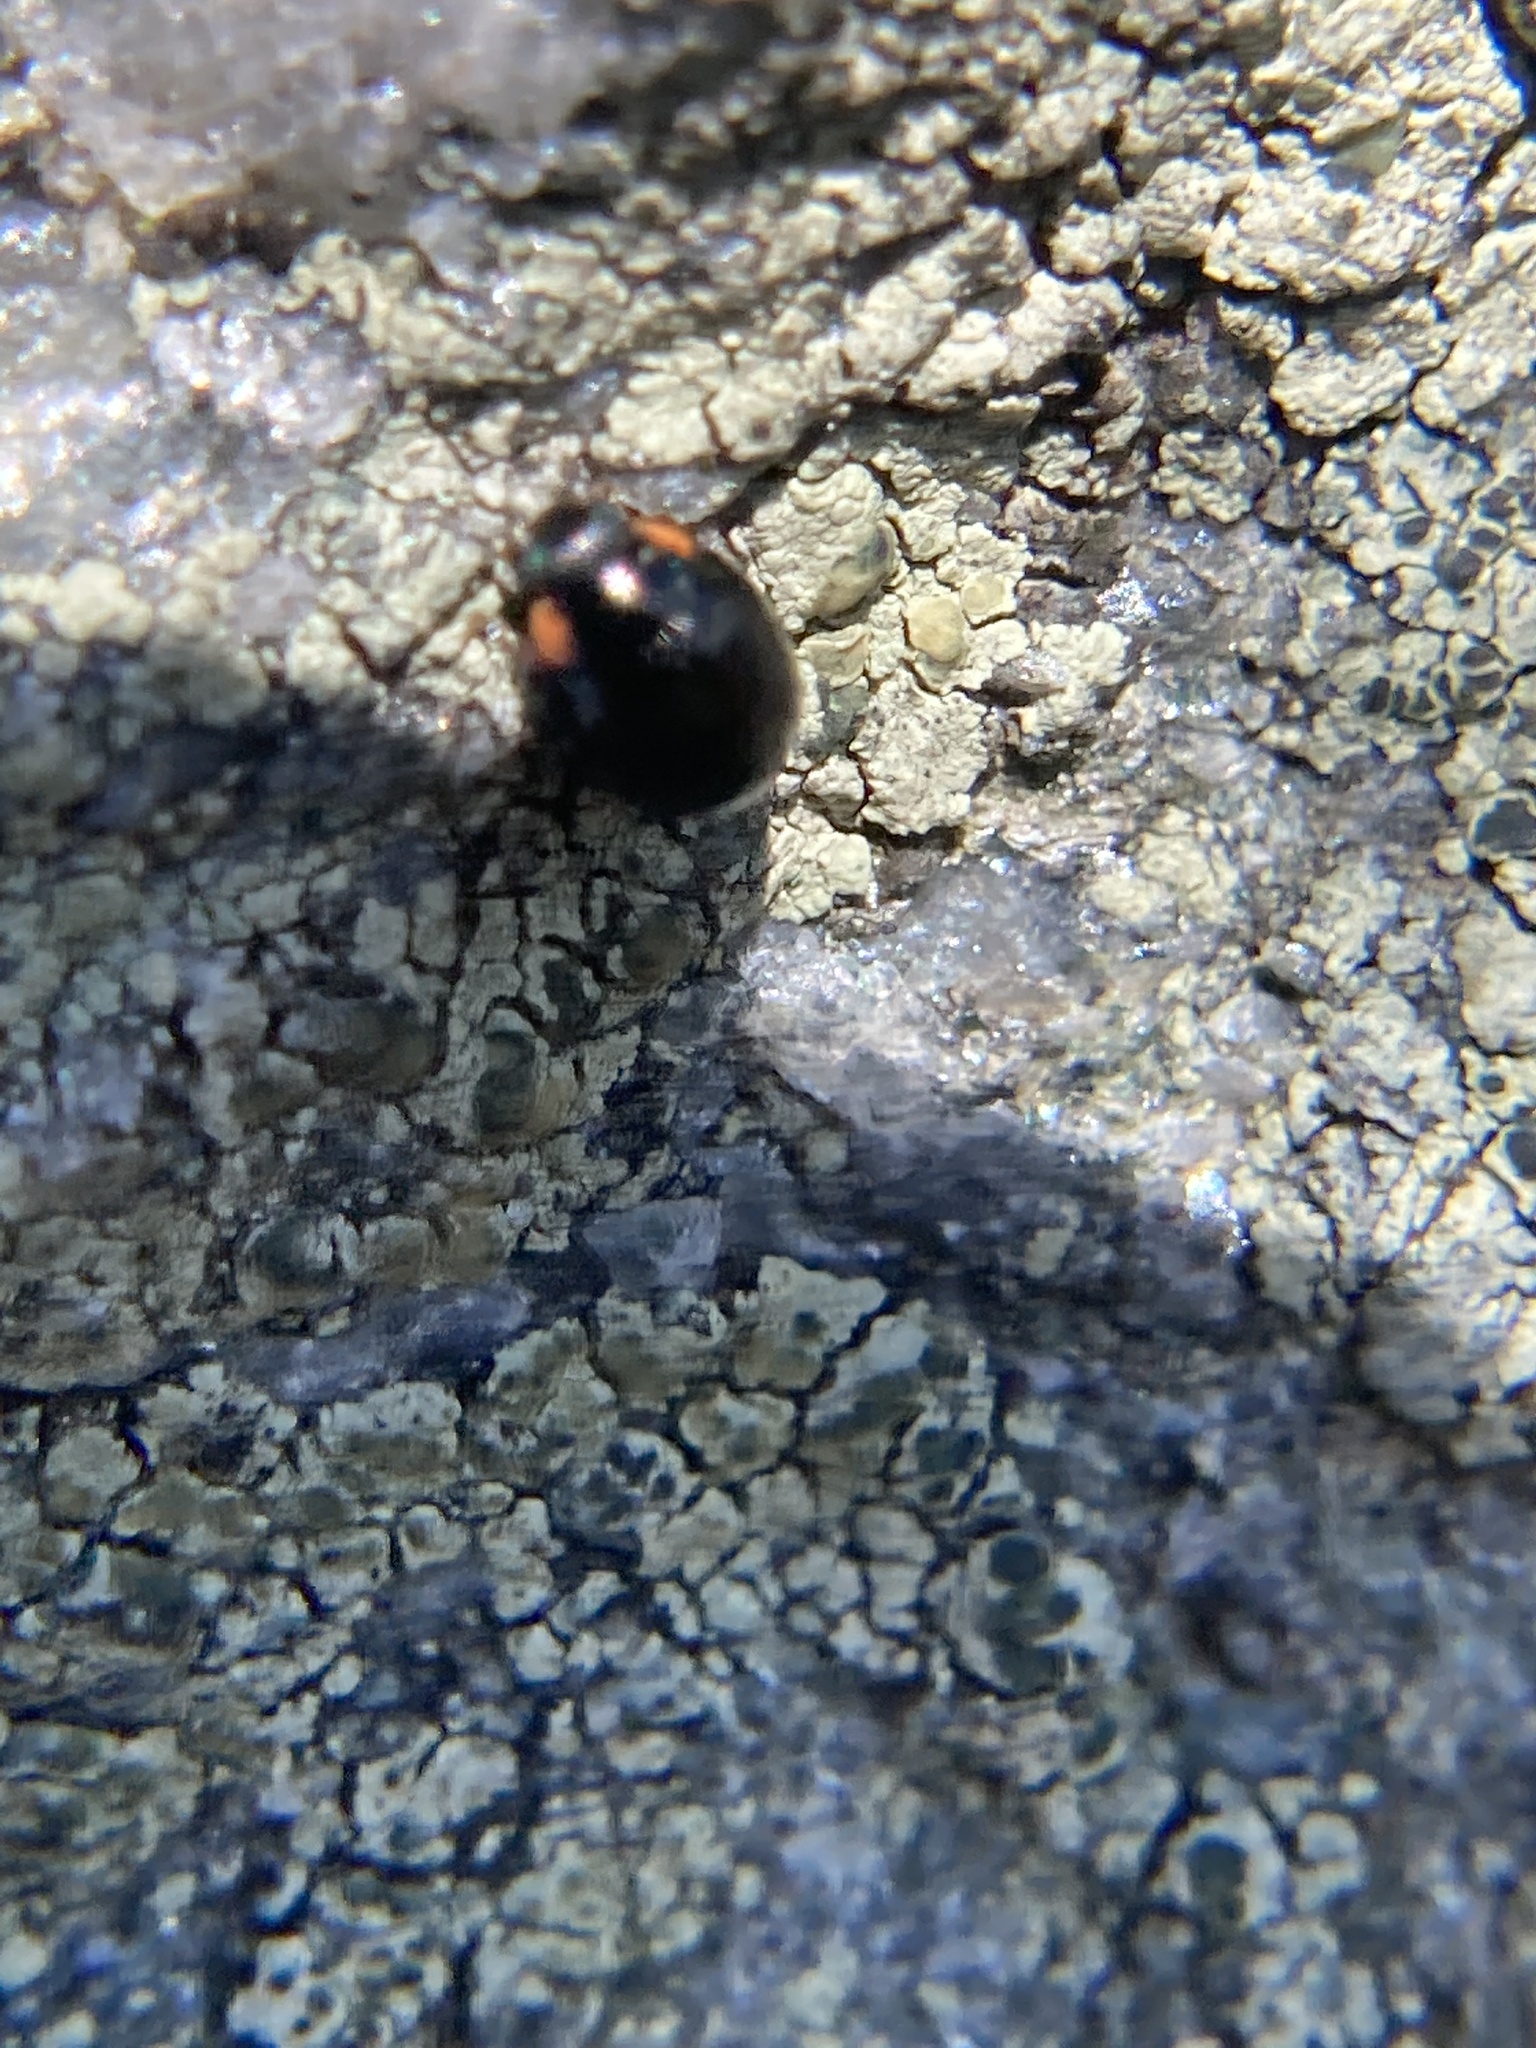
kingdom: Animalia
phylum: Arthropoda
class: Insecta
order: Coleoptera
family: Coccinellidae
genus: Hyperaspis
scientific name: Hyperaspis bigeminata
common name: Bigeminate sigil lady beetle
